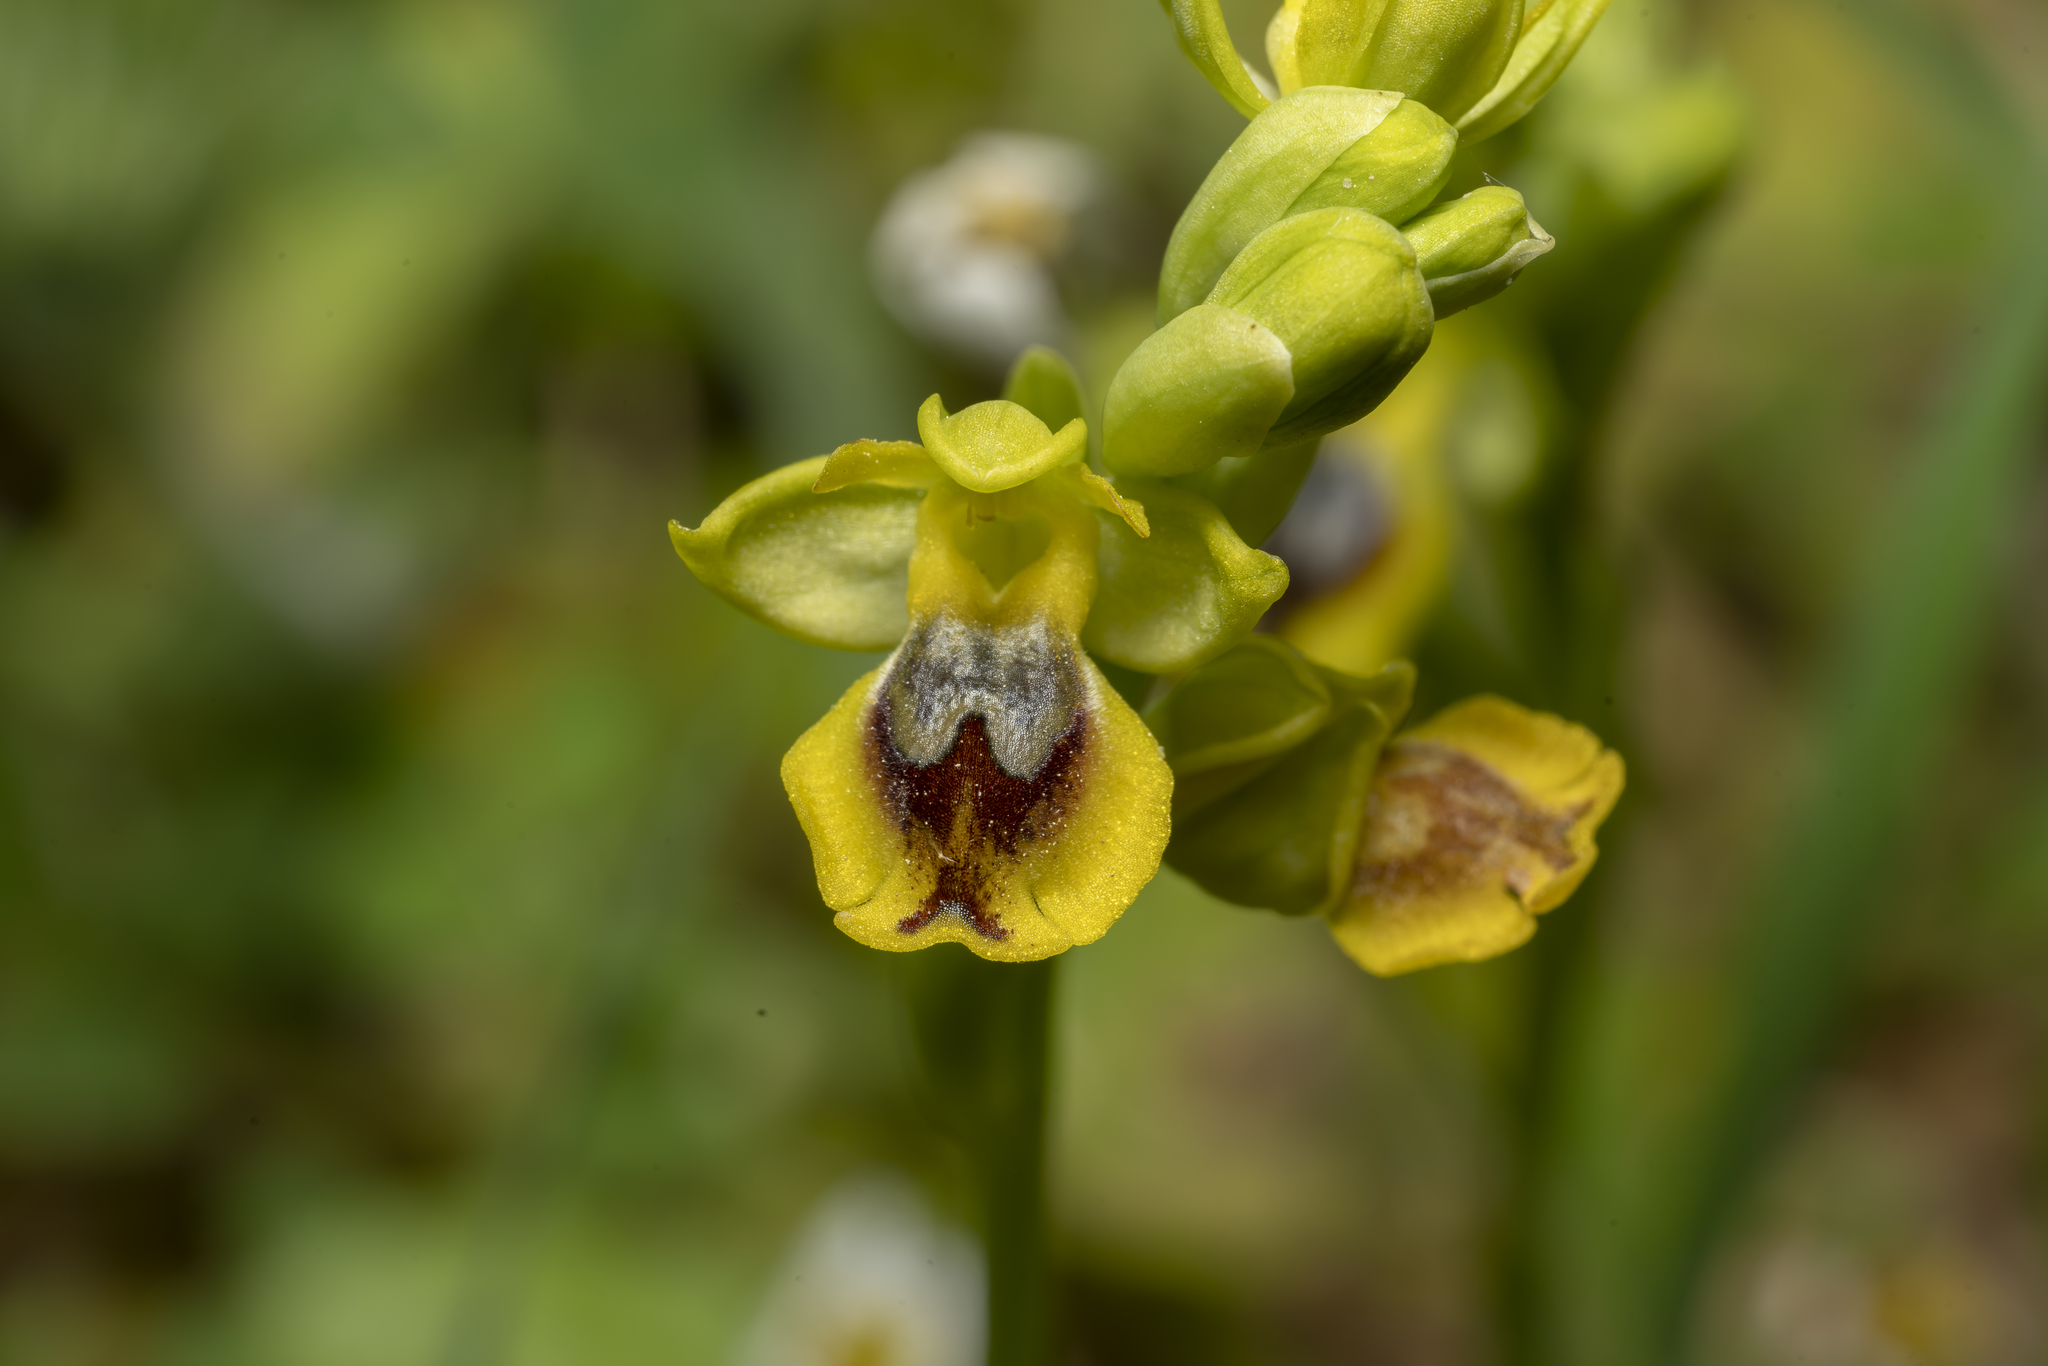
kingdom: Plantae
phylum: Tracheophyta
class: Liliopsida
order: Asparagales
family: Orchidaceae
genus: Ophrys
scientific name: Ophrys lutea
